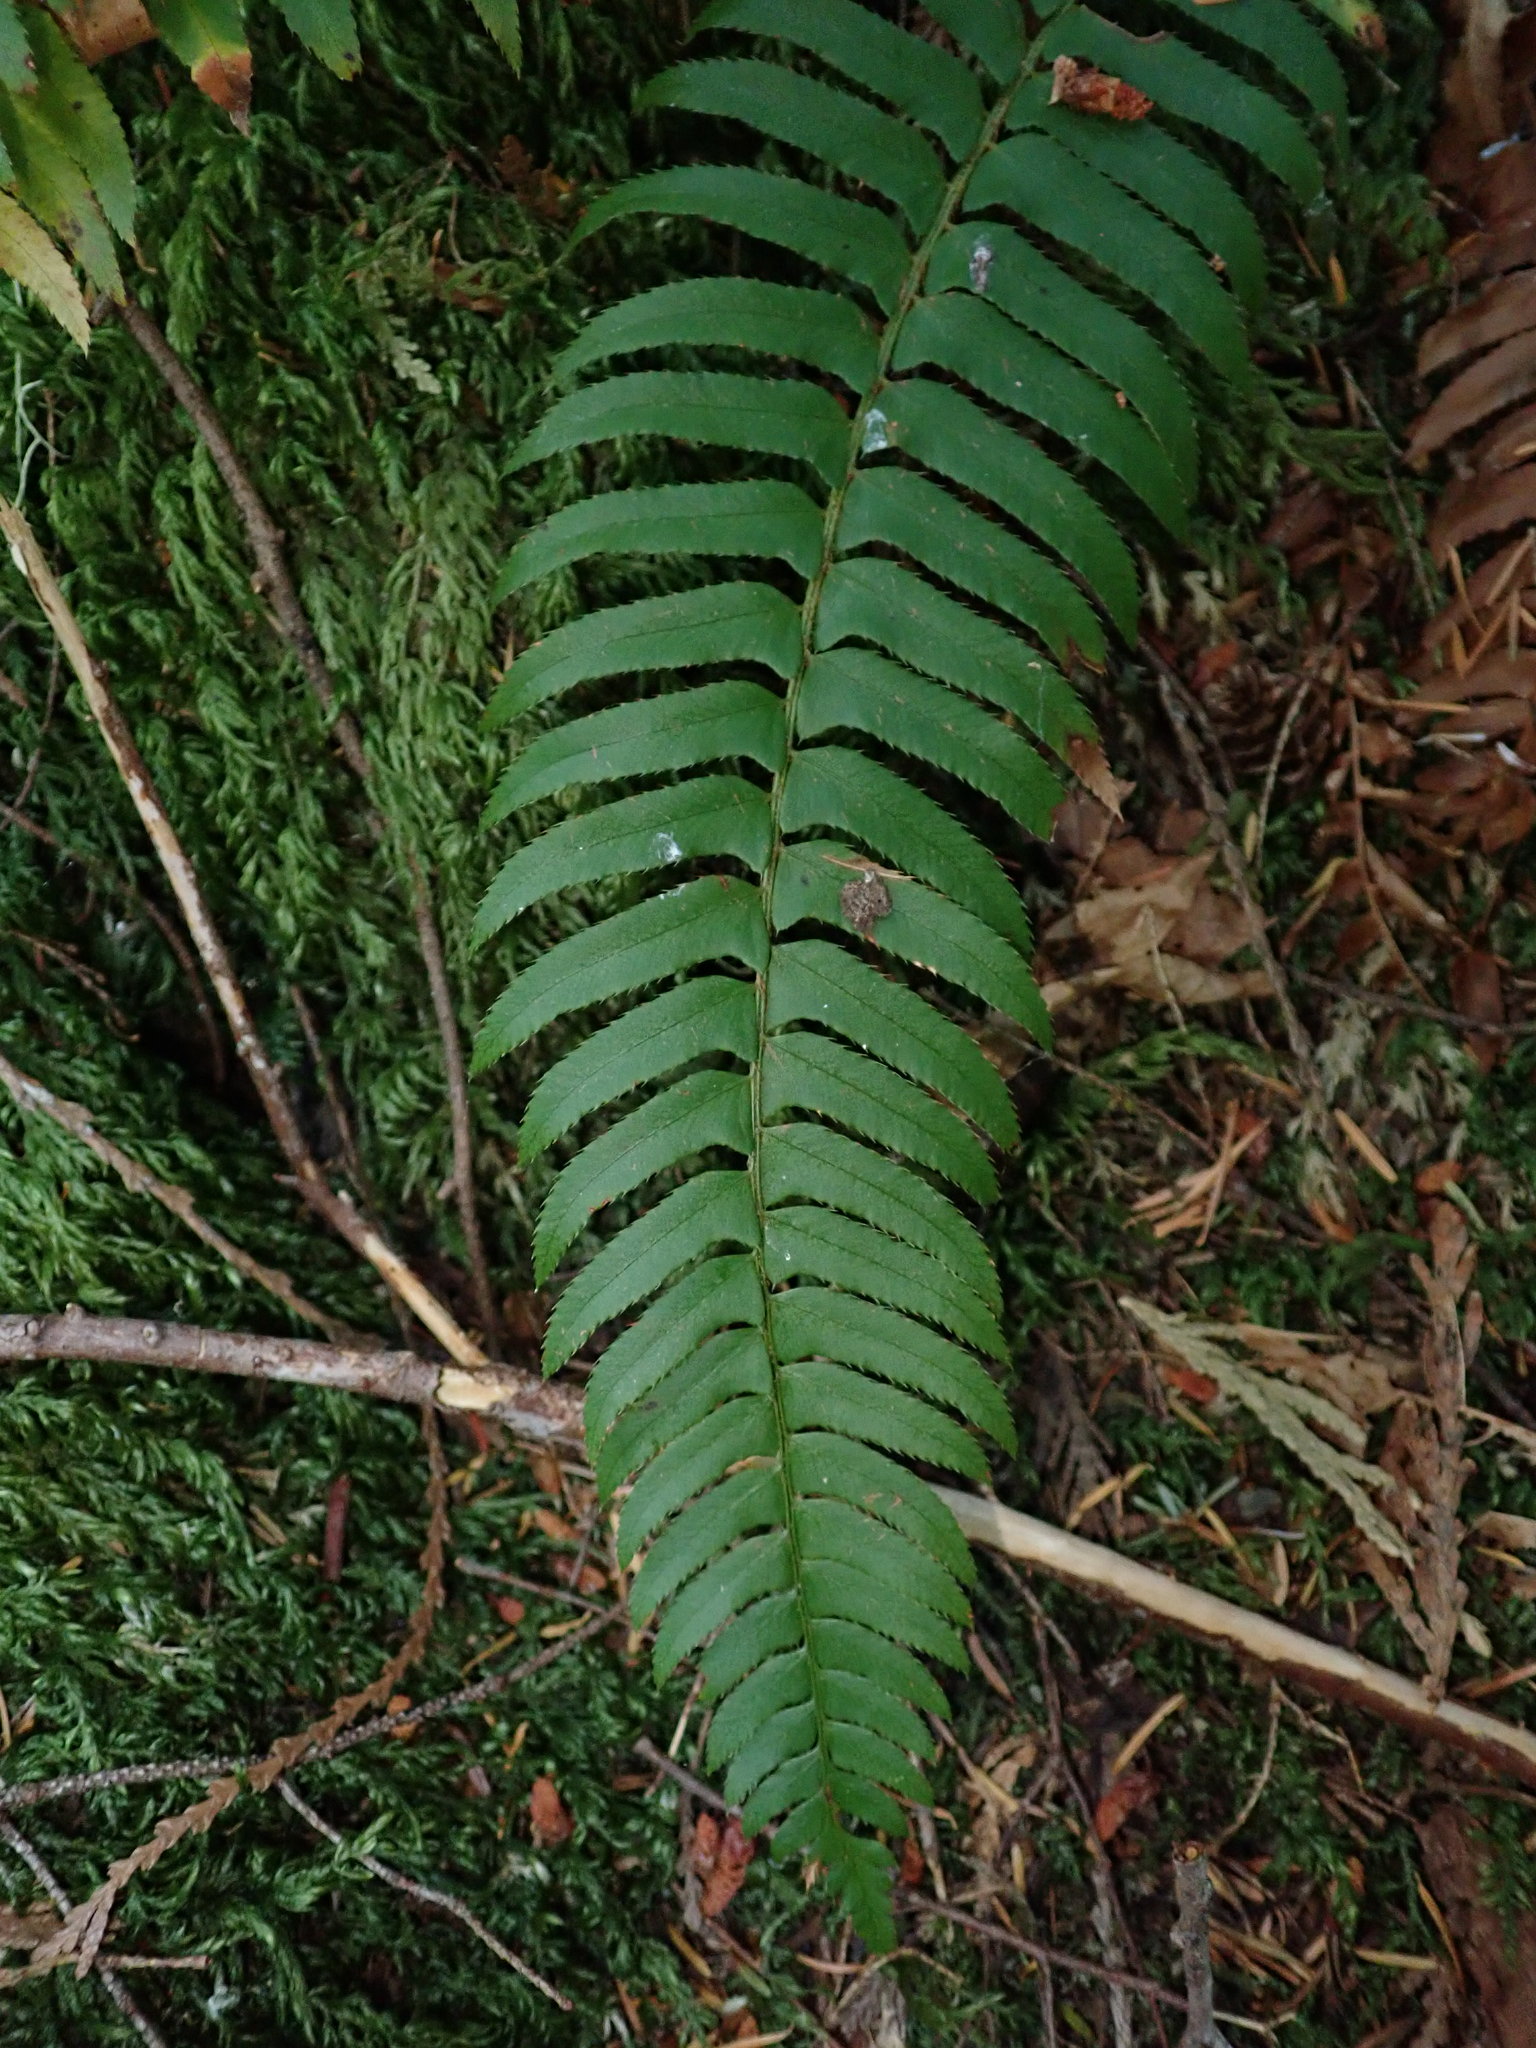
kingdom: Plantae
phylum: Tracheophyta
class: Polypodiopsida
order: Polypodiales
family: Dryopteridaceae
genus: Polystichum
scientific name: Polystichum munitum
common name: Western sword-fern
